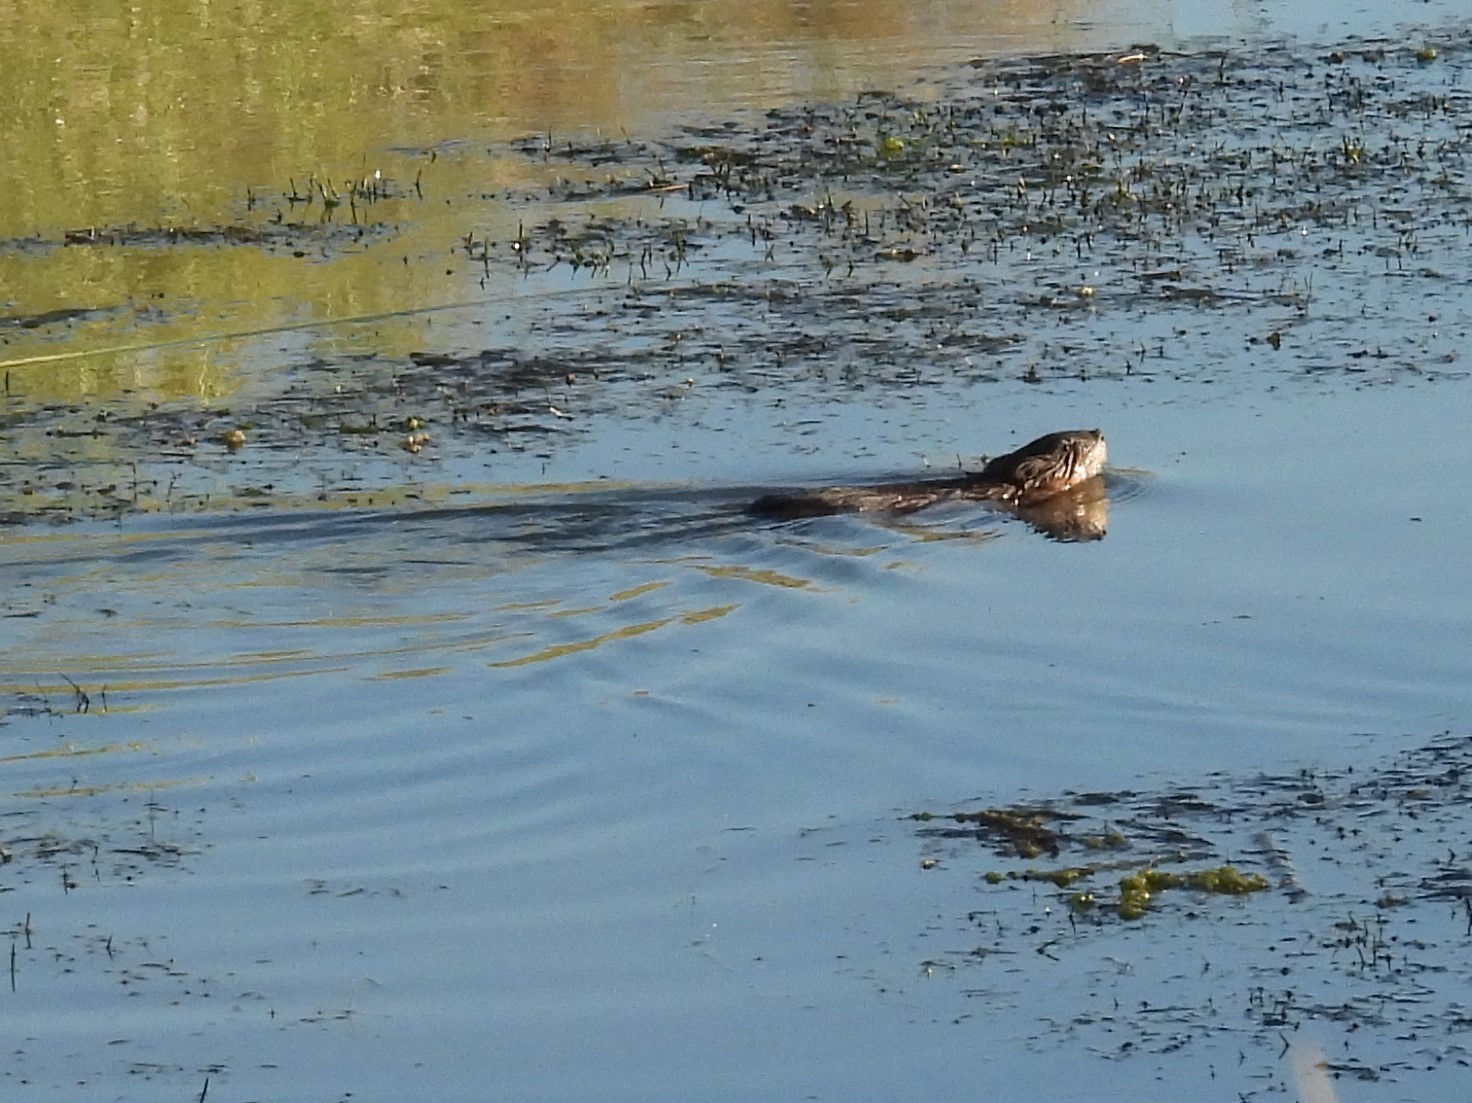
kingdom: Animalia
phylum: Chordata
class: Mammalia
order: Rodentia
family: Cricetidae
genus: Ondatra
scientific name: Ondatra zibethicus
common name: Muskrat
